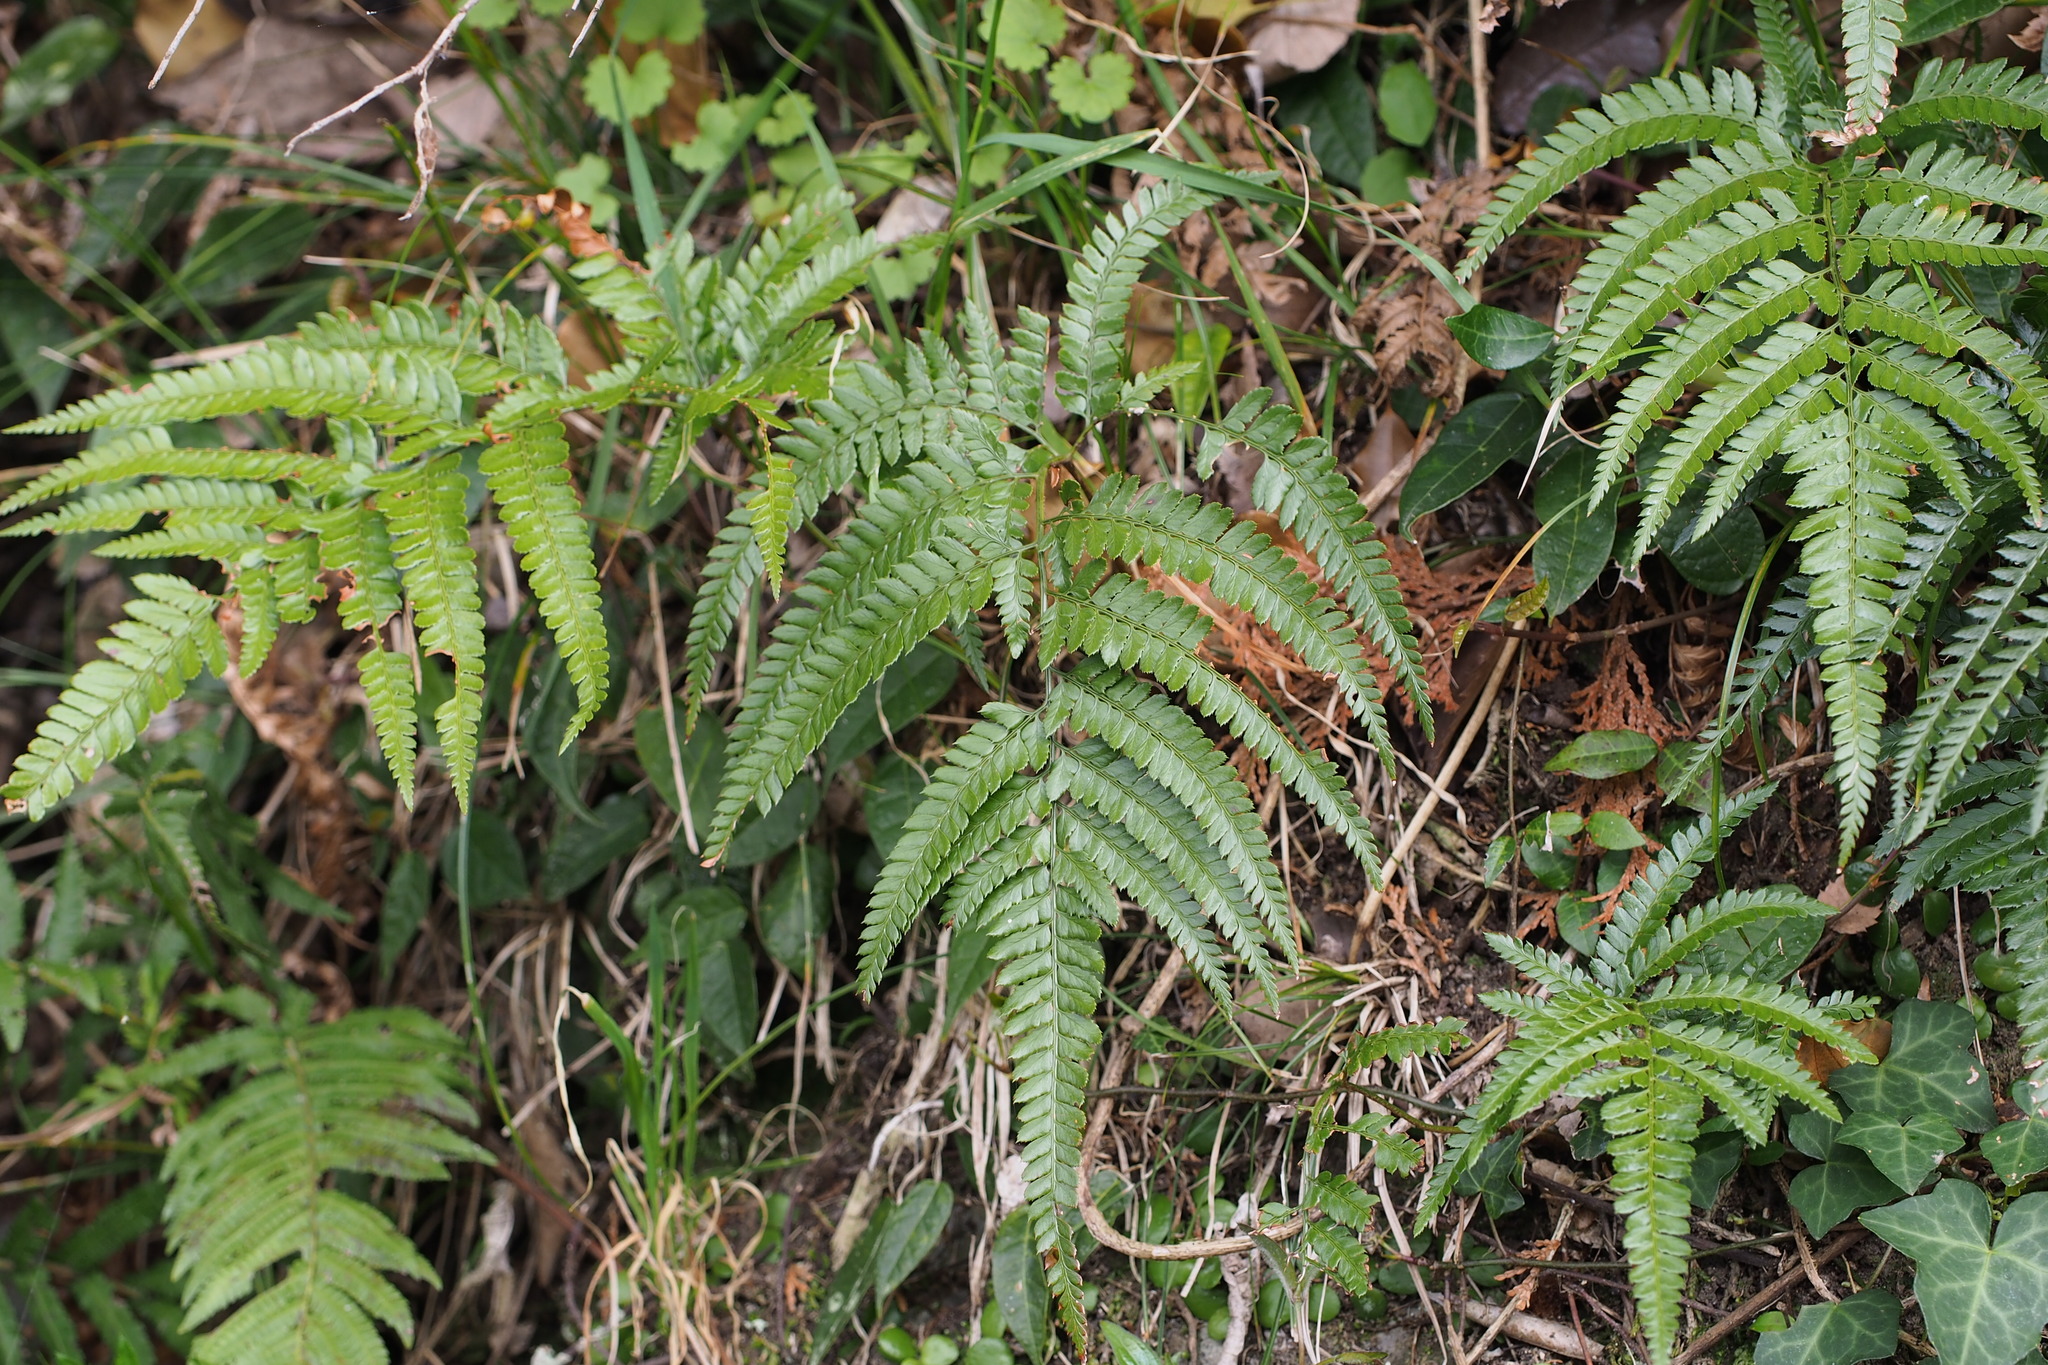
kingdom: Plantae
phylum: Tracheophyta
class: Polypodiopsida
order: Polypodiales
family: Dryopteridaceae
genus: Arachniodes
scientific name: Arachniodes aristata
